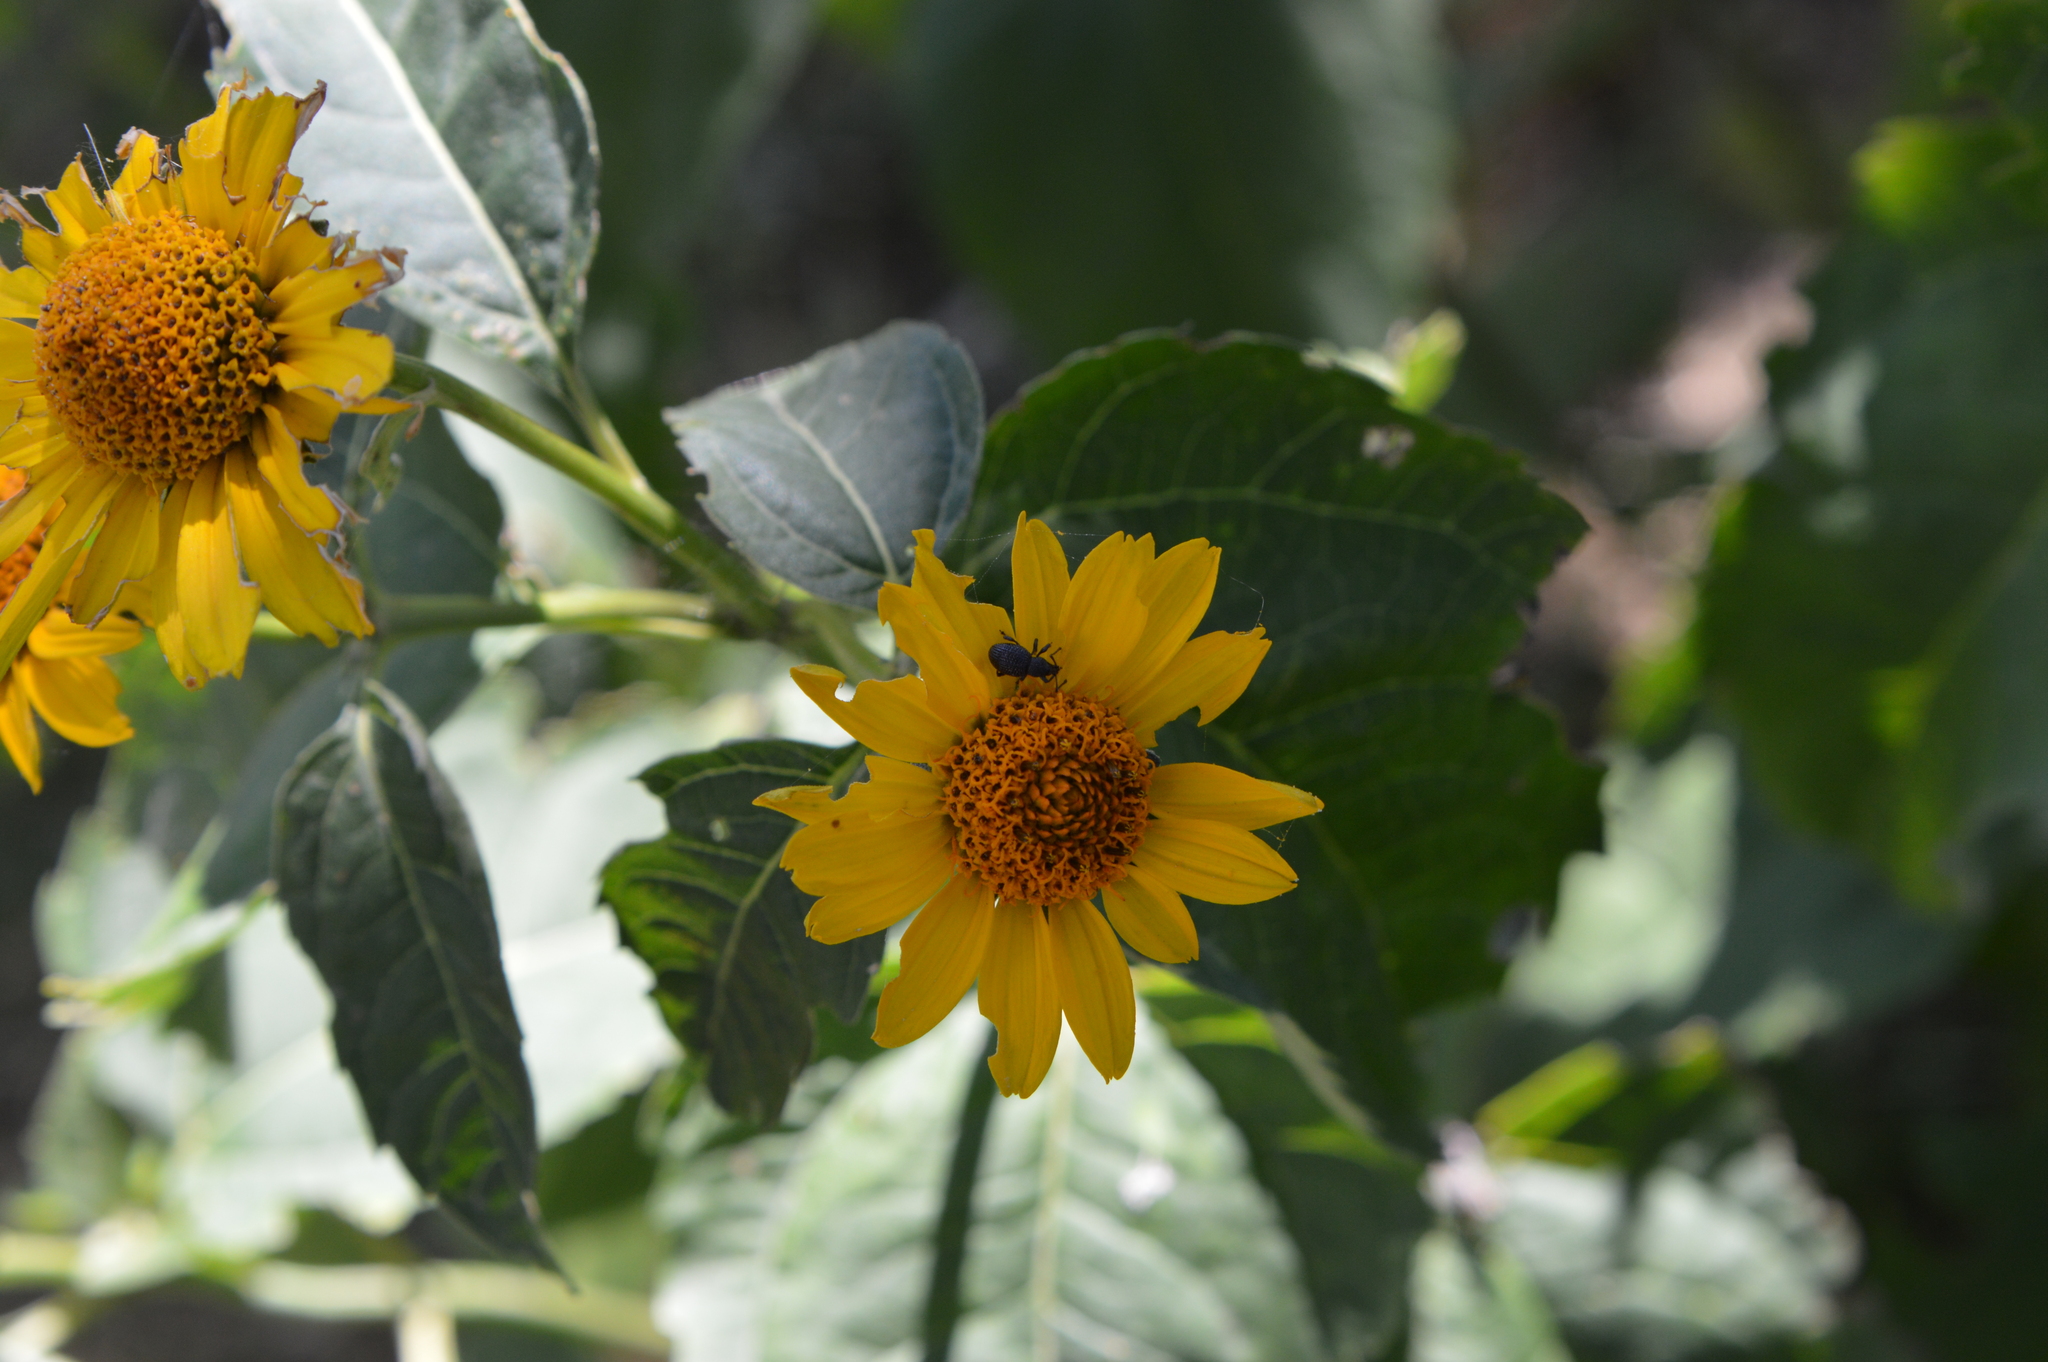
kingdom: Animalia
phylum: Arthropoda
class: Insecta
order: Coleoptera
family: Curculionidae
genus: Otiorhynchus
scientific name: Otiorhynchus pinastri
